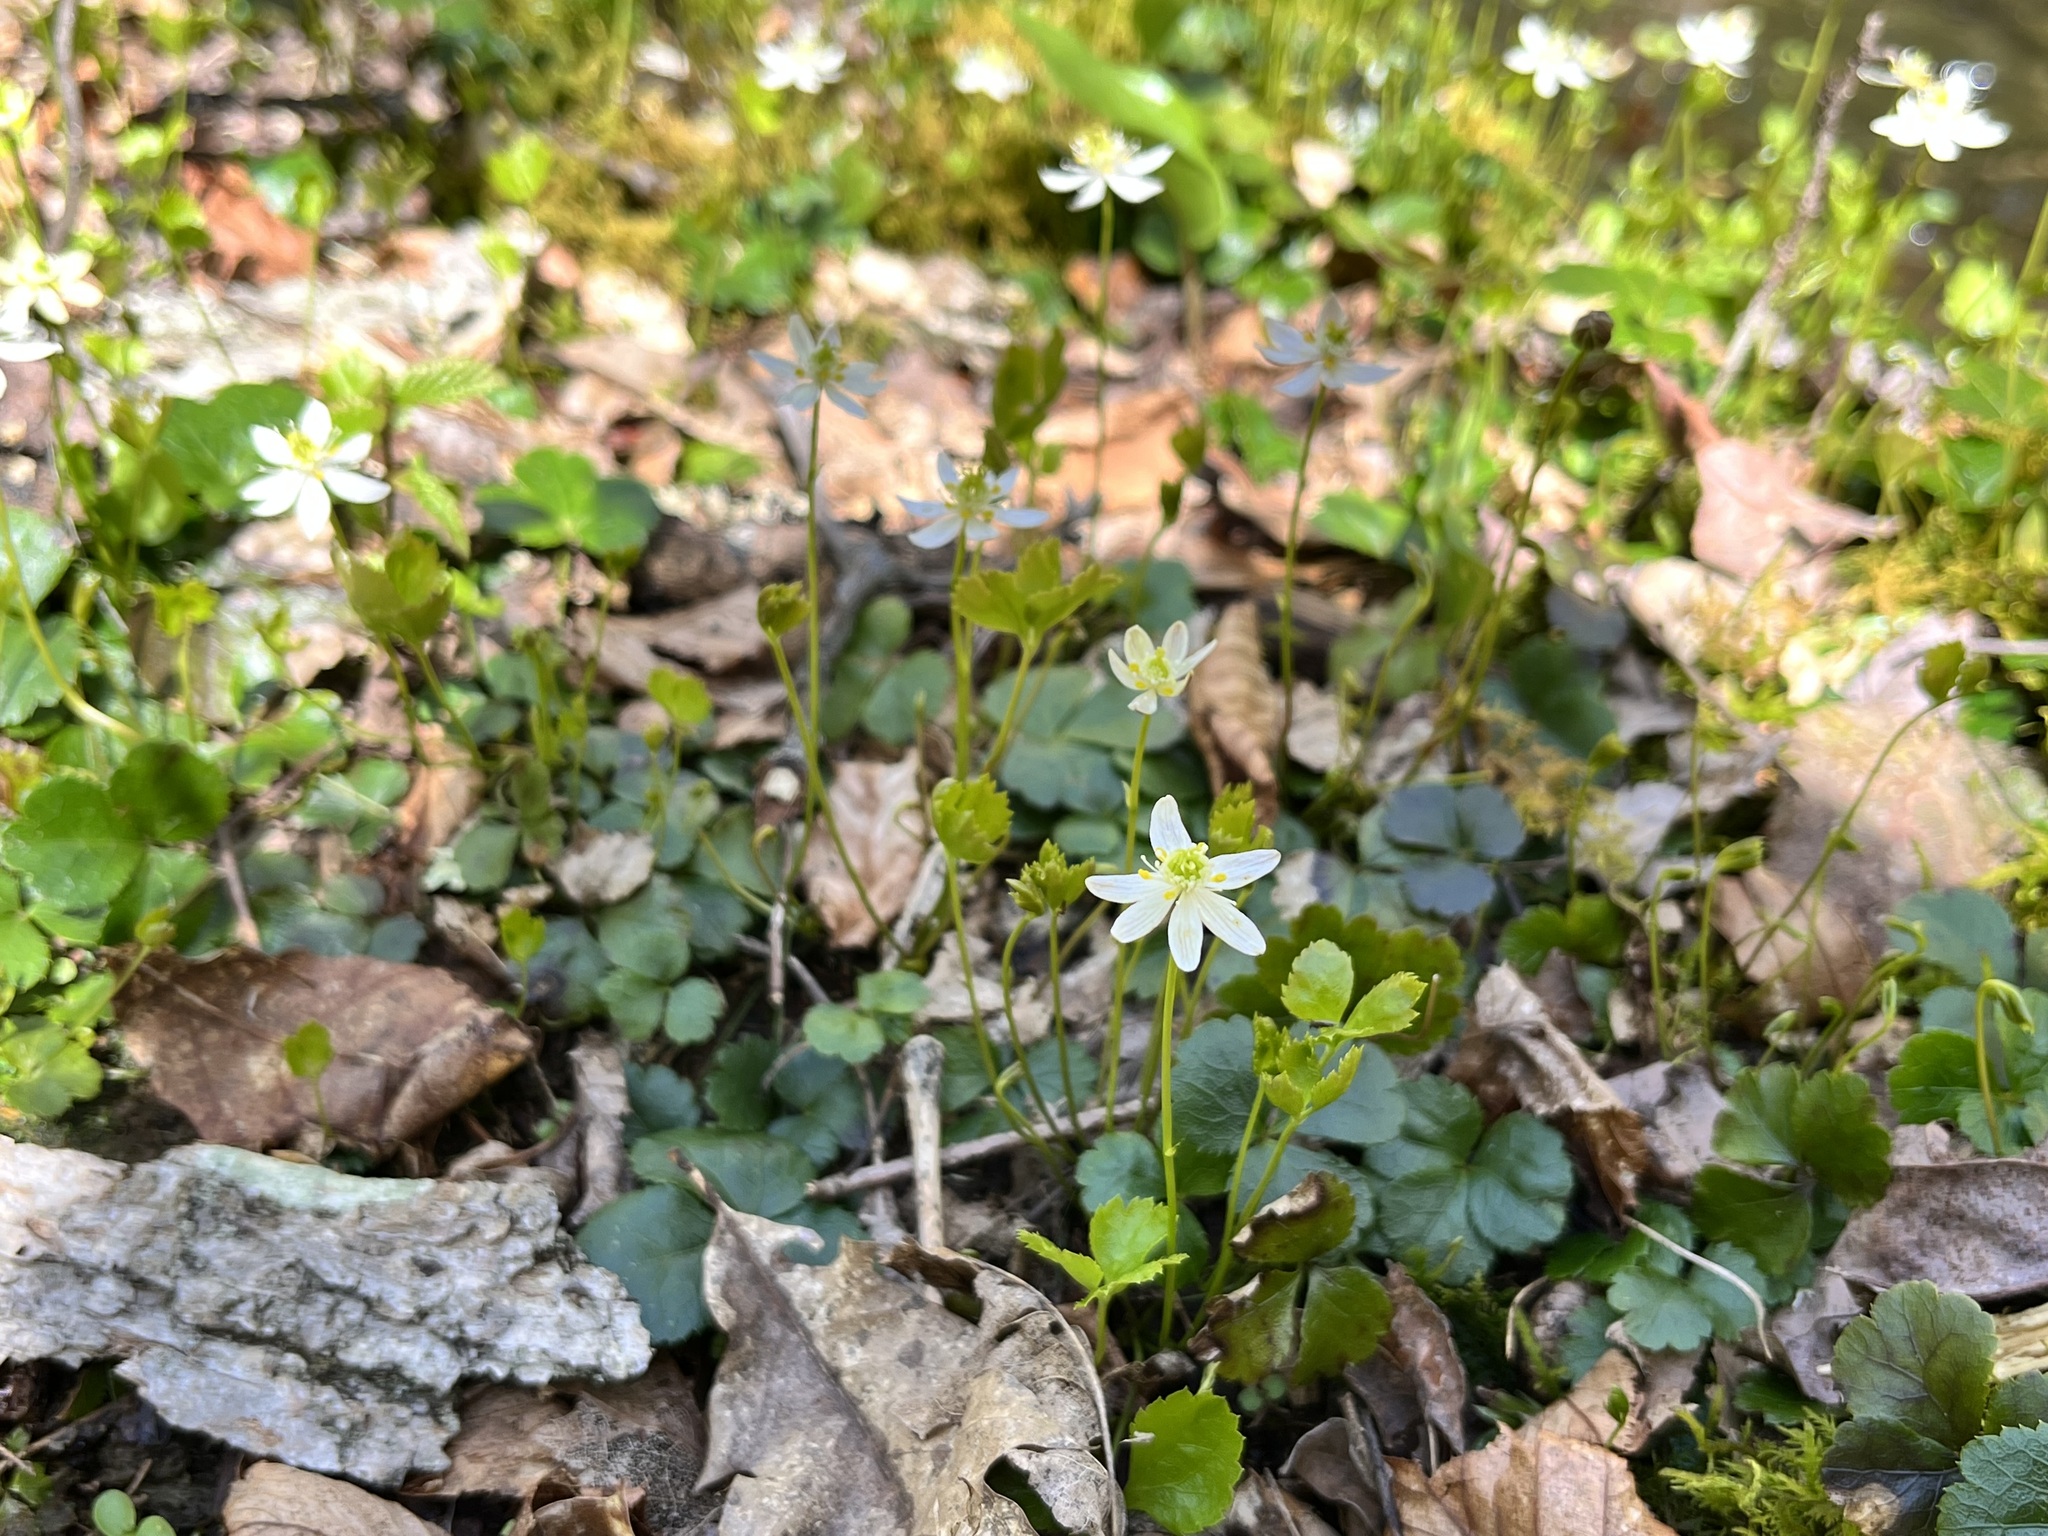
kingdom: Plantae
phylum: Tracheophyta
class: Magnoliopsida
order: Ranunculales
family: Ranunculaceae
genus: Coptis
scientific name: Coptis trifolia
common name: Canker-root
